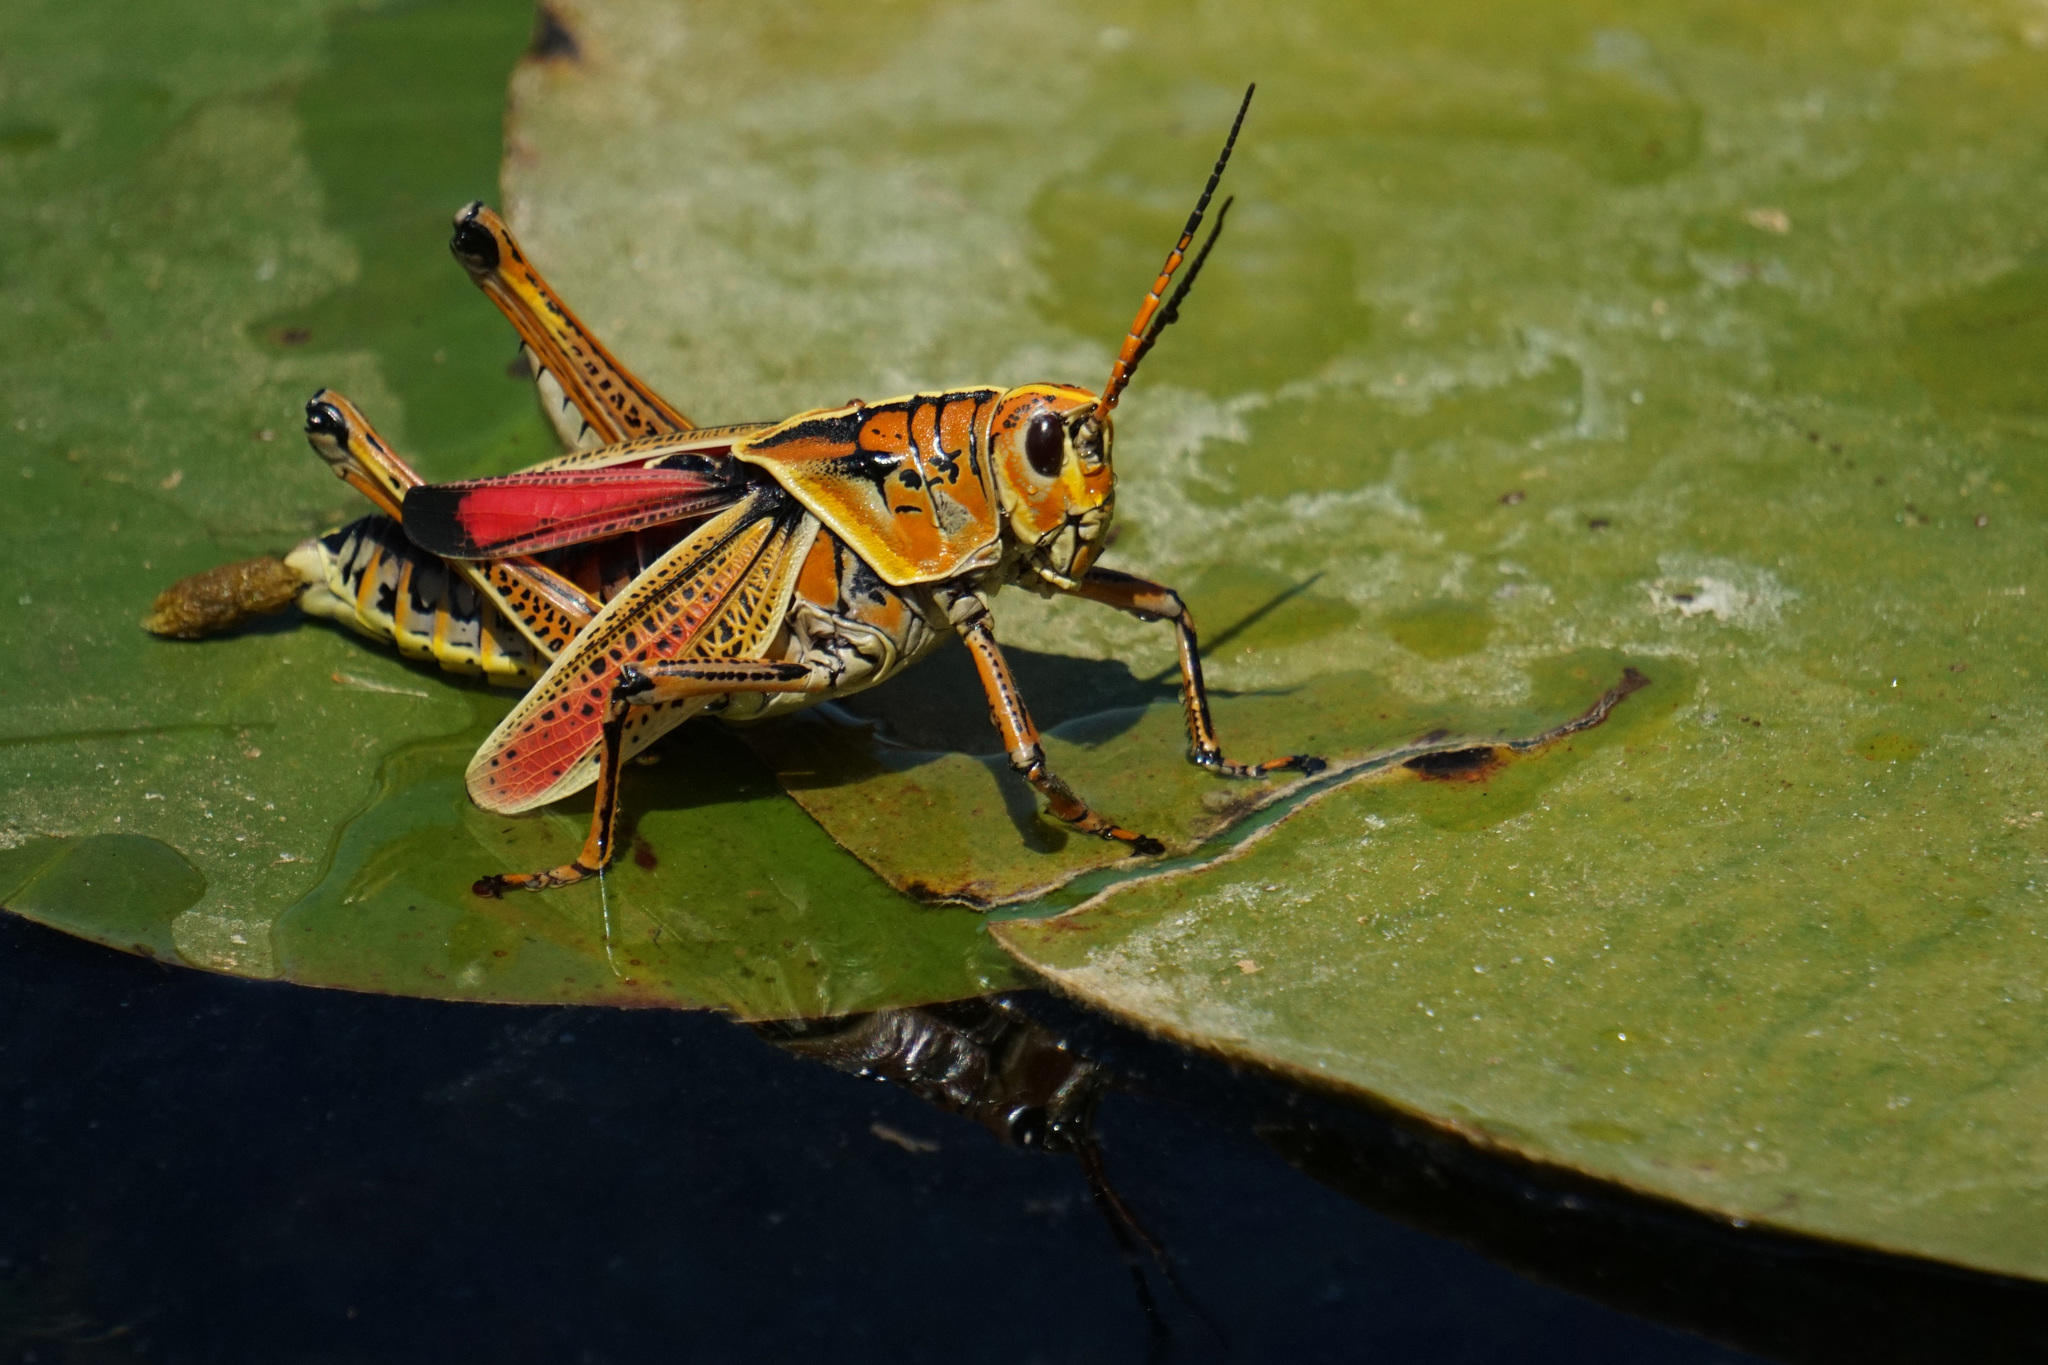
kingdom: Animalia
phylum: Arthropoda
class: Insecta
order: Orthoptera
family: Romaleidae
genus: Romalea
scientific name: Romalea microptera
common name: Eastern lubber grasshopper
